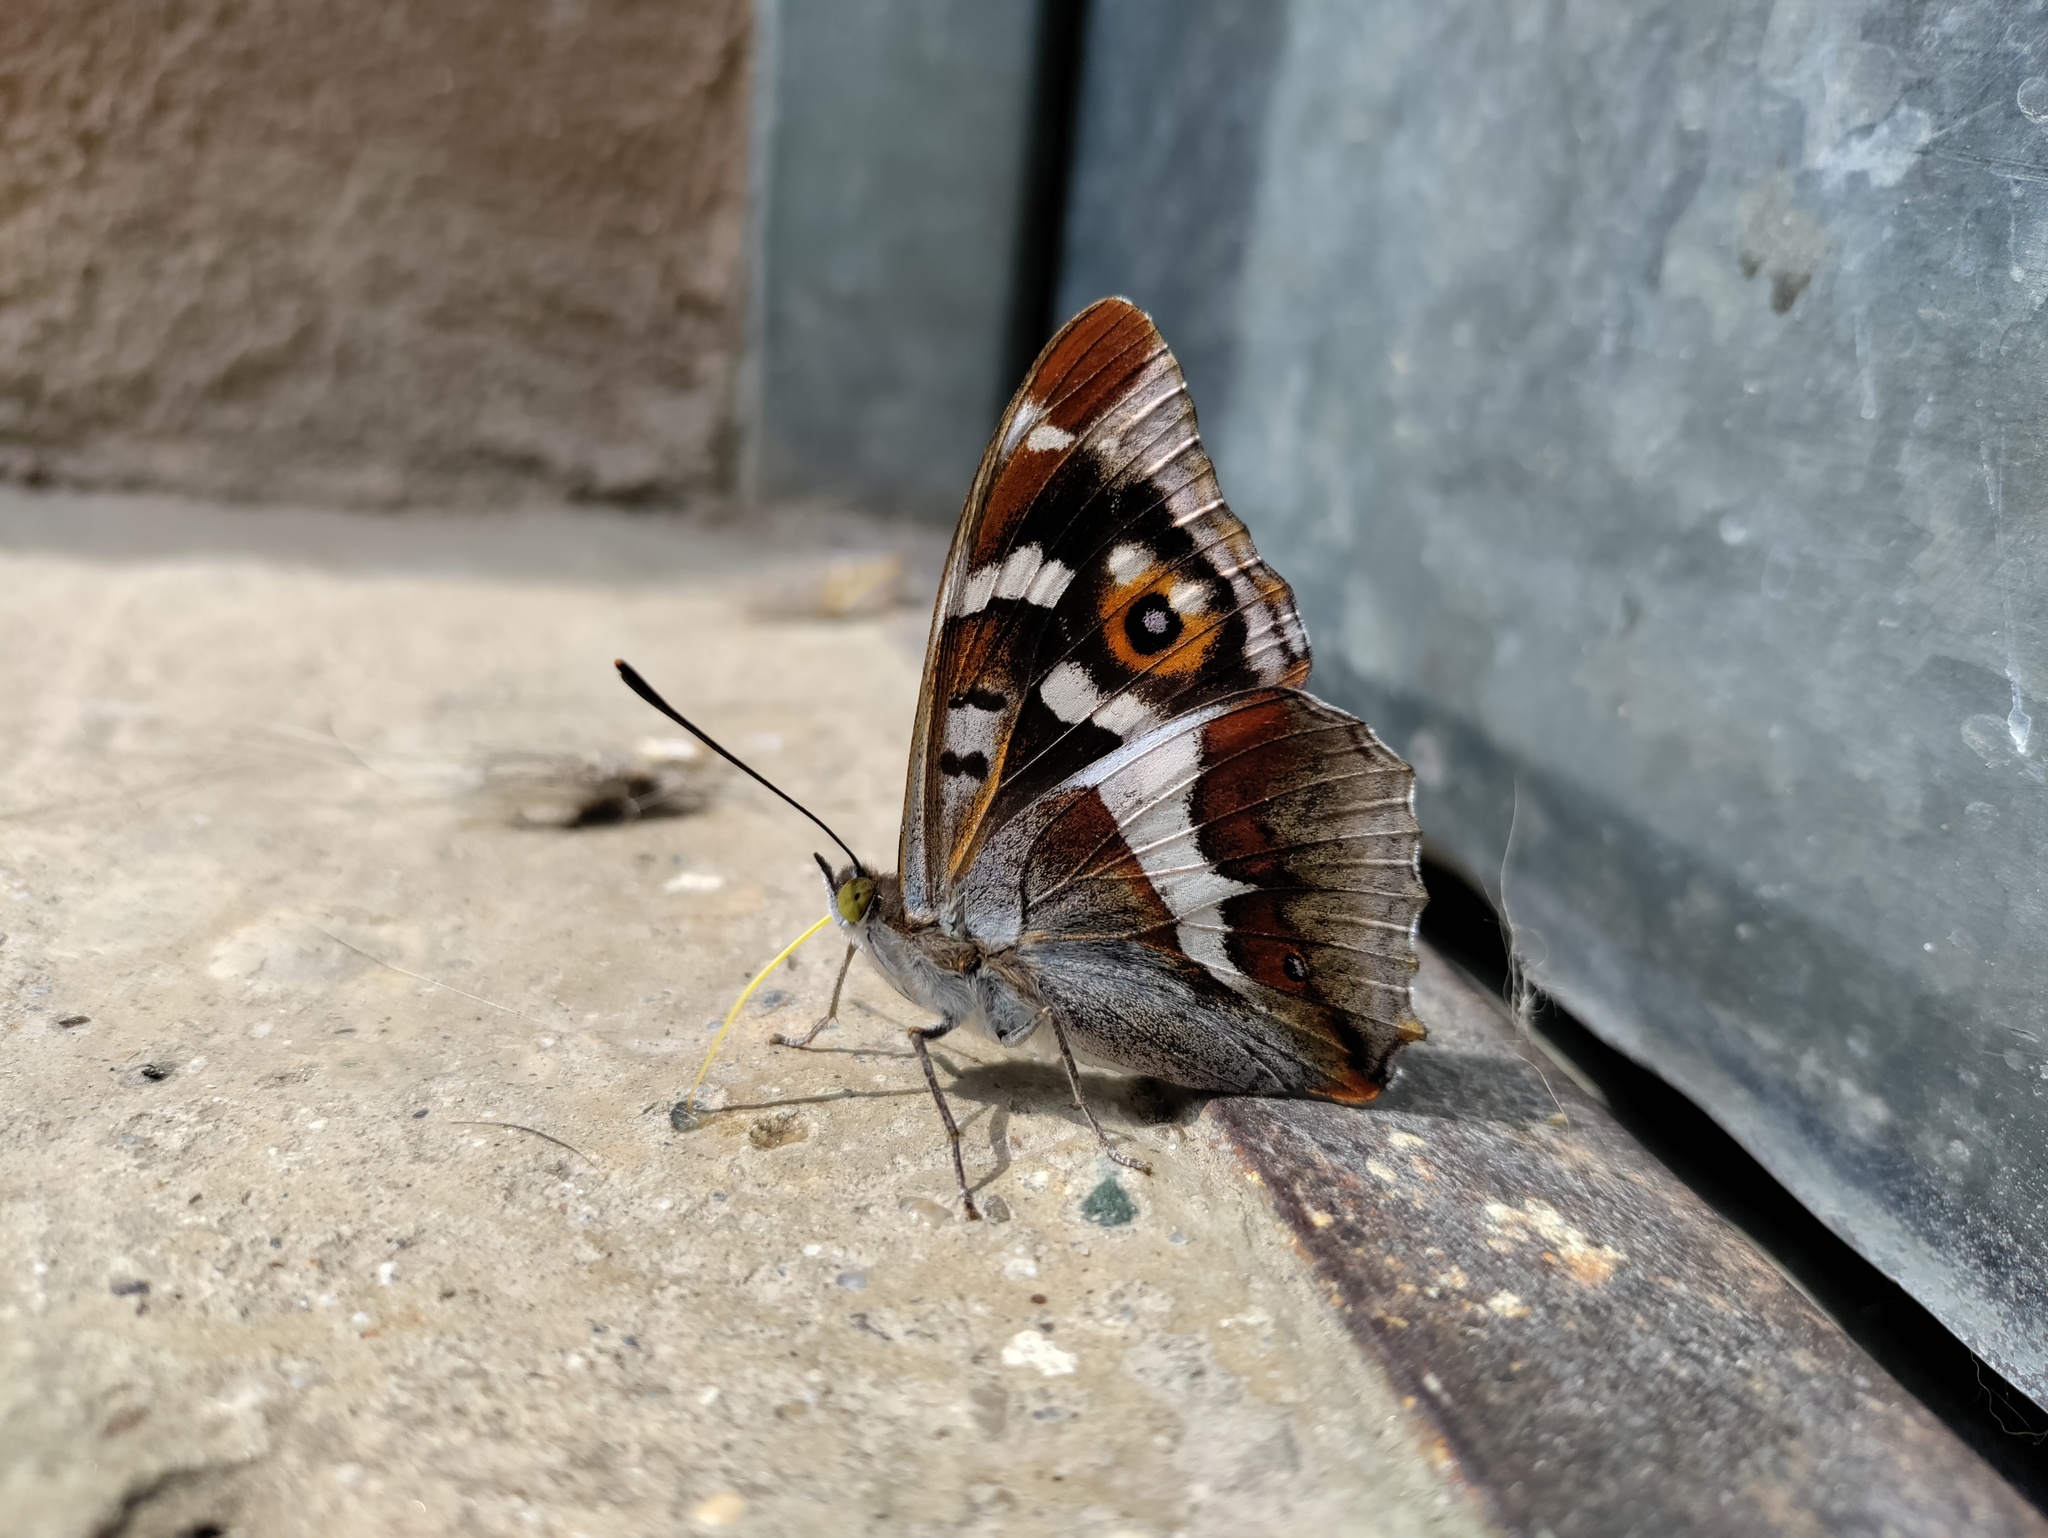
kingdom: Animalia
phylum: Arthropoda
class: Insecta
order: Lepidoptera
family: Nymphalidae
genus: Apatura
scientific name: Apatura iris
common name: Purple emperor
